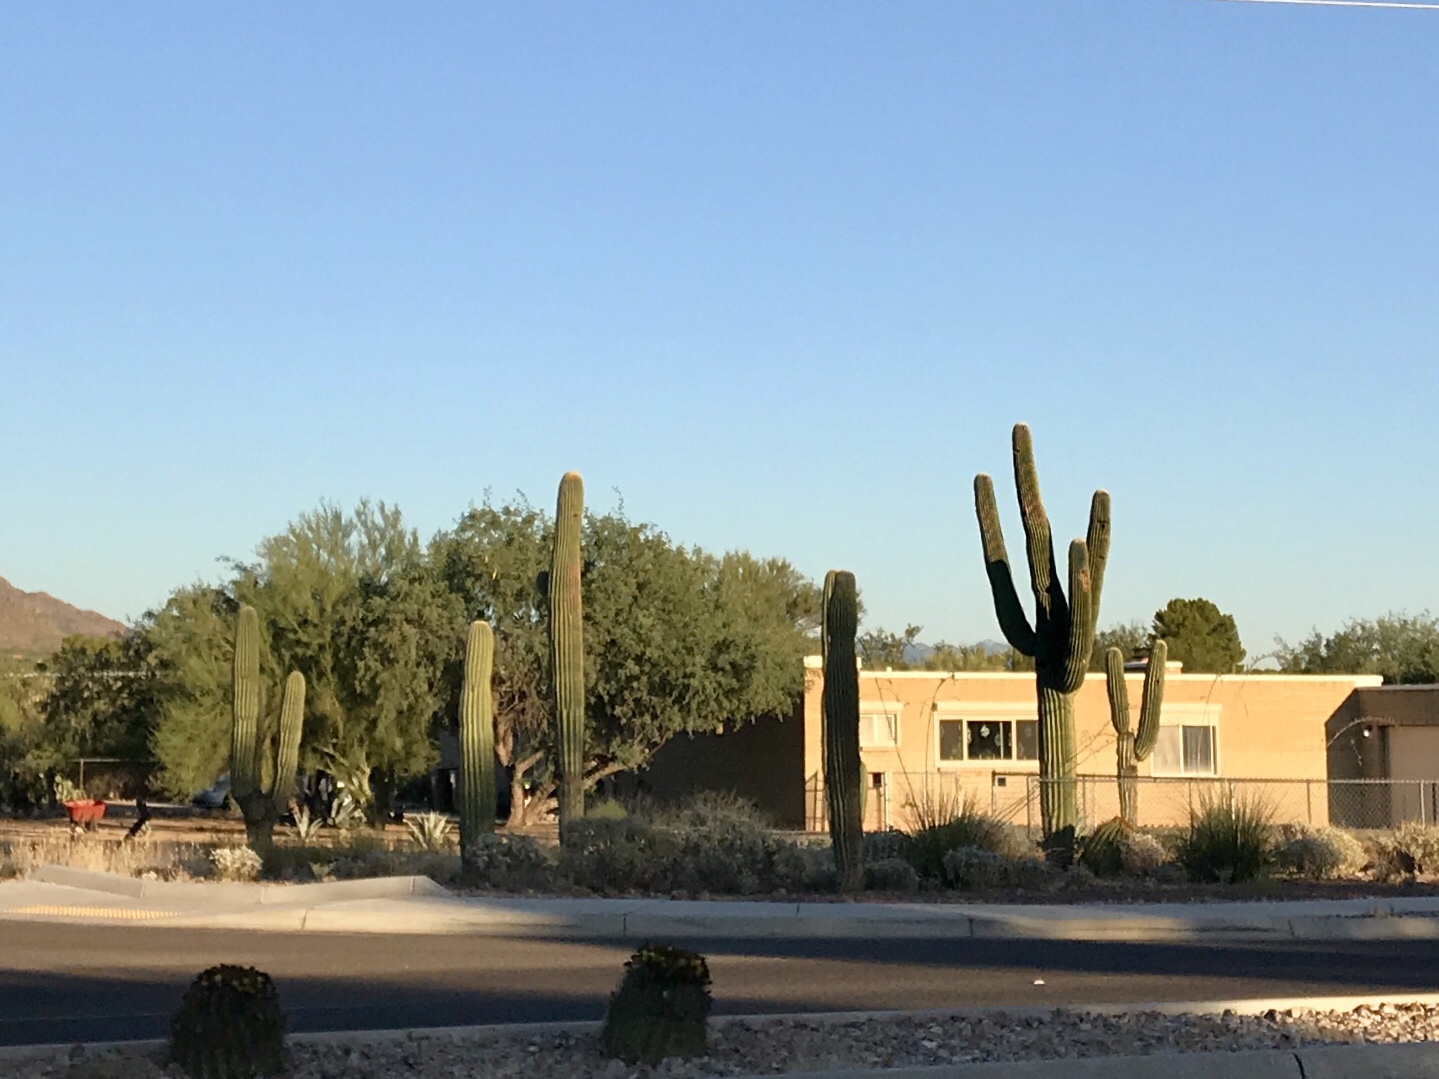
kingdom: Plantae
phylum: Tracheophyta
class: Magnoliopsida
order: Caryophyllales
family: Cactaceae
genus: Carnegiea
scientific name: Carnegiea gigantea
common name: Saguaro
